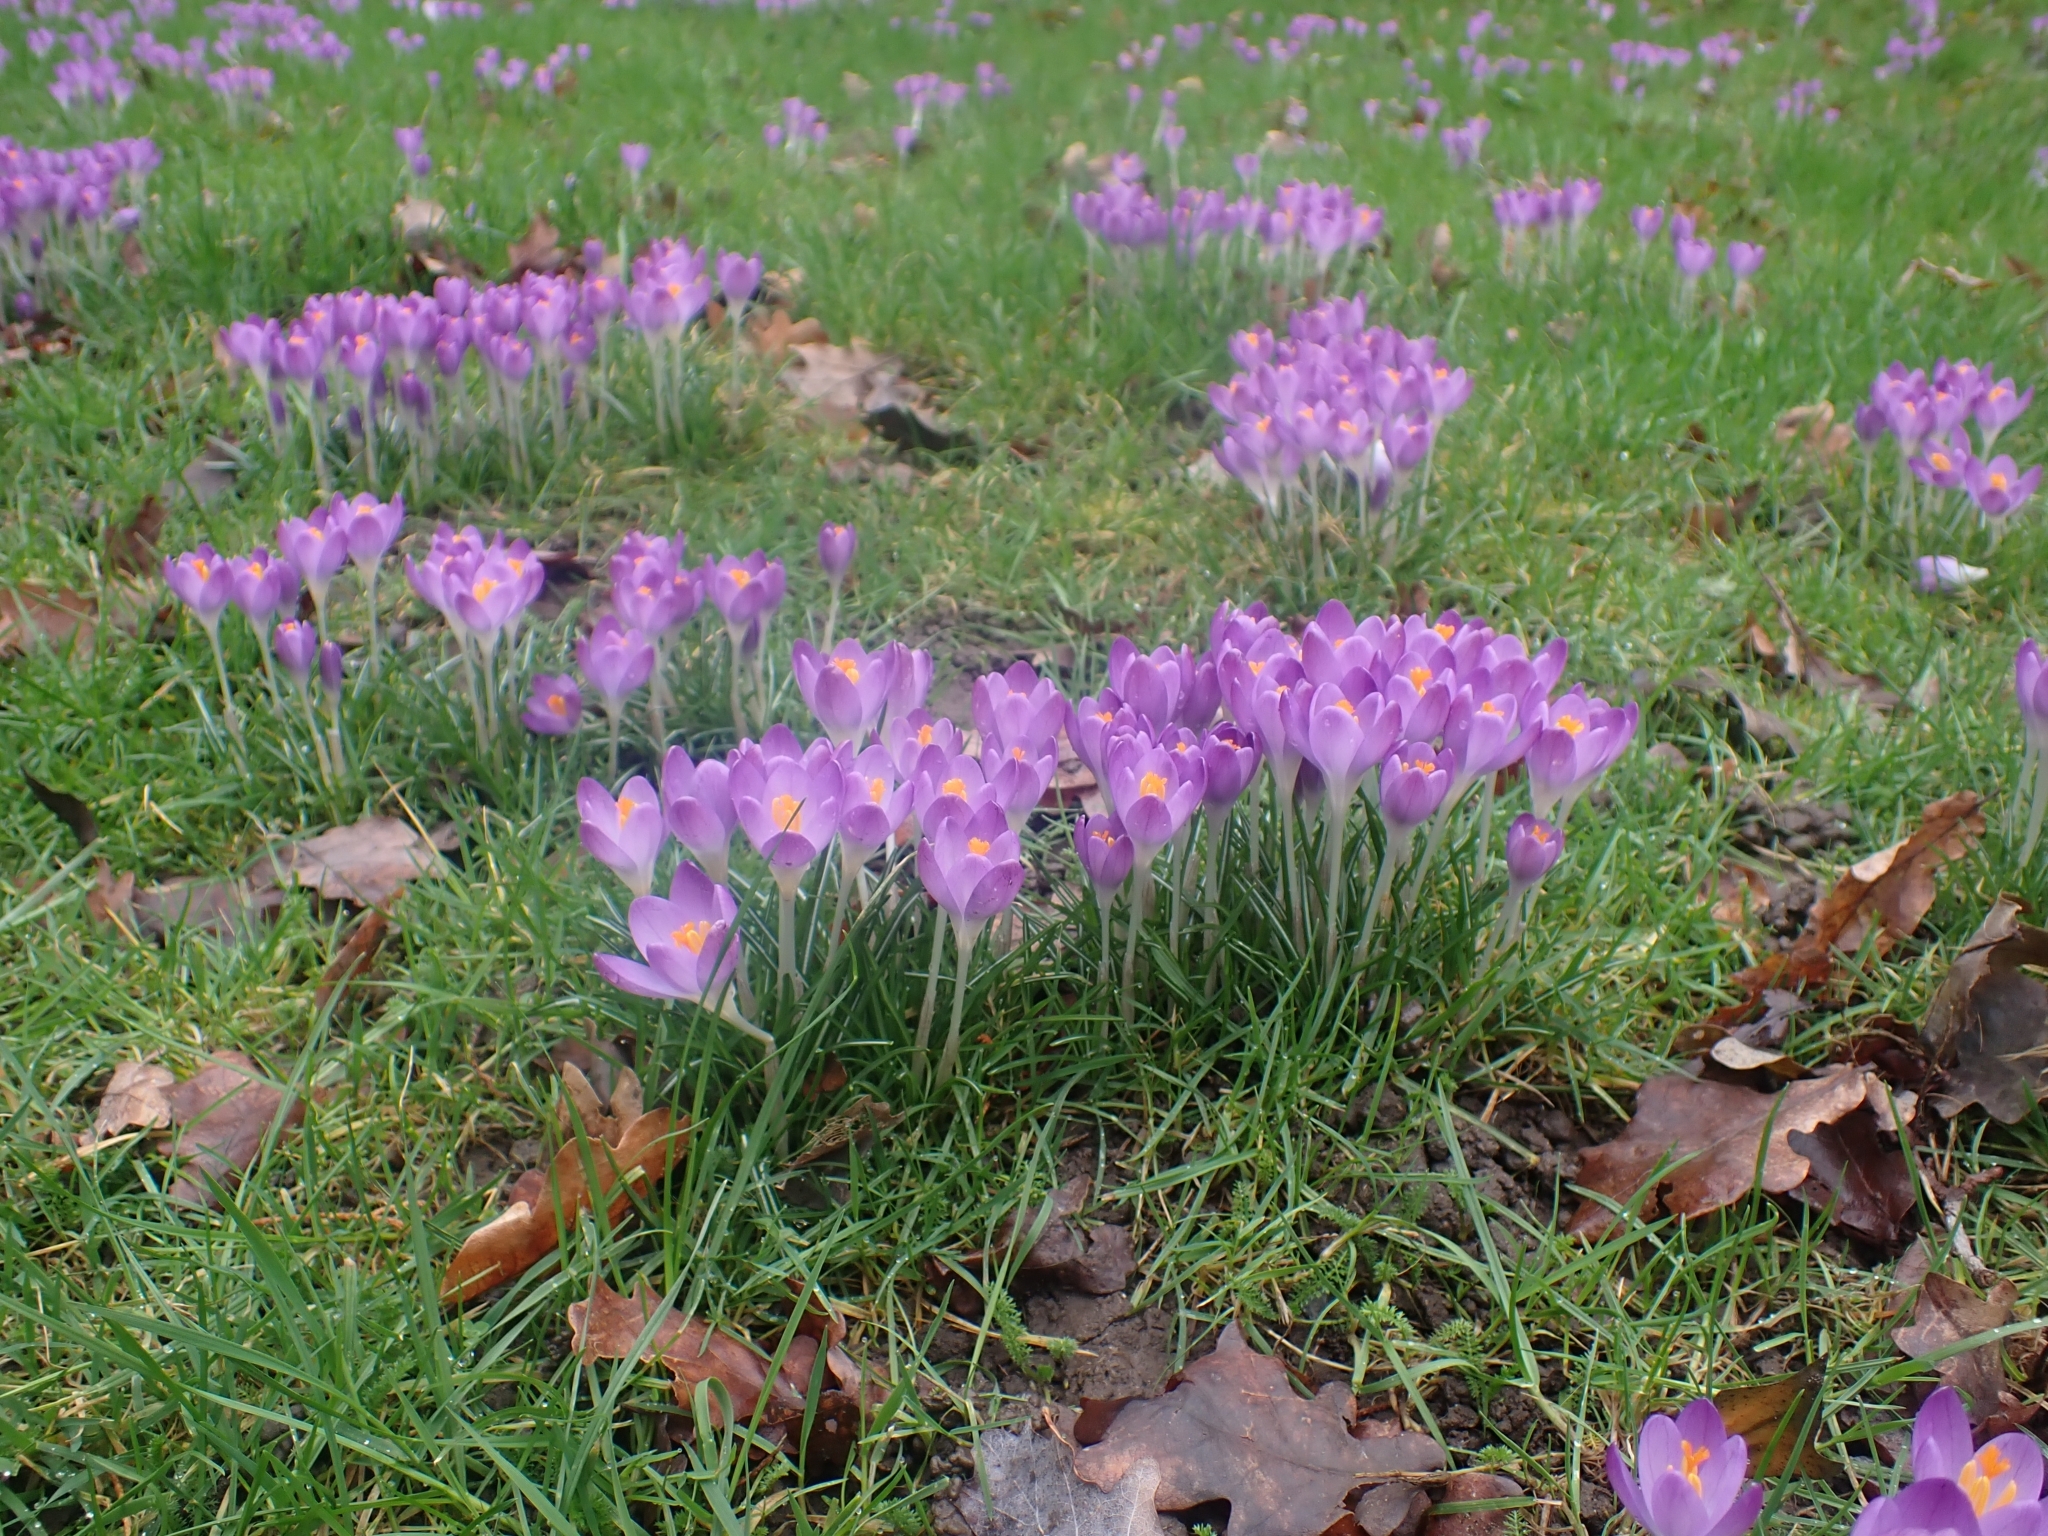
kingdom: Plantae
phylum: Tracheophyta
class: Liliopsida
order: Asparagales
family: Iridaceae
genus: Crocus
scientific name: Crocus tommasinianus
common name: Early crocus
